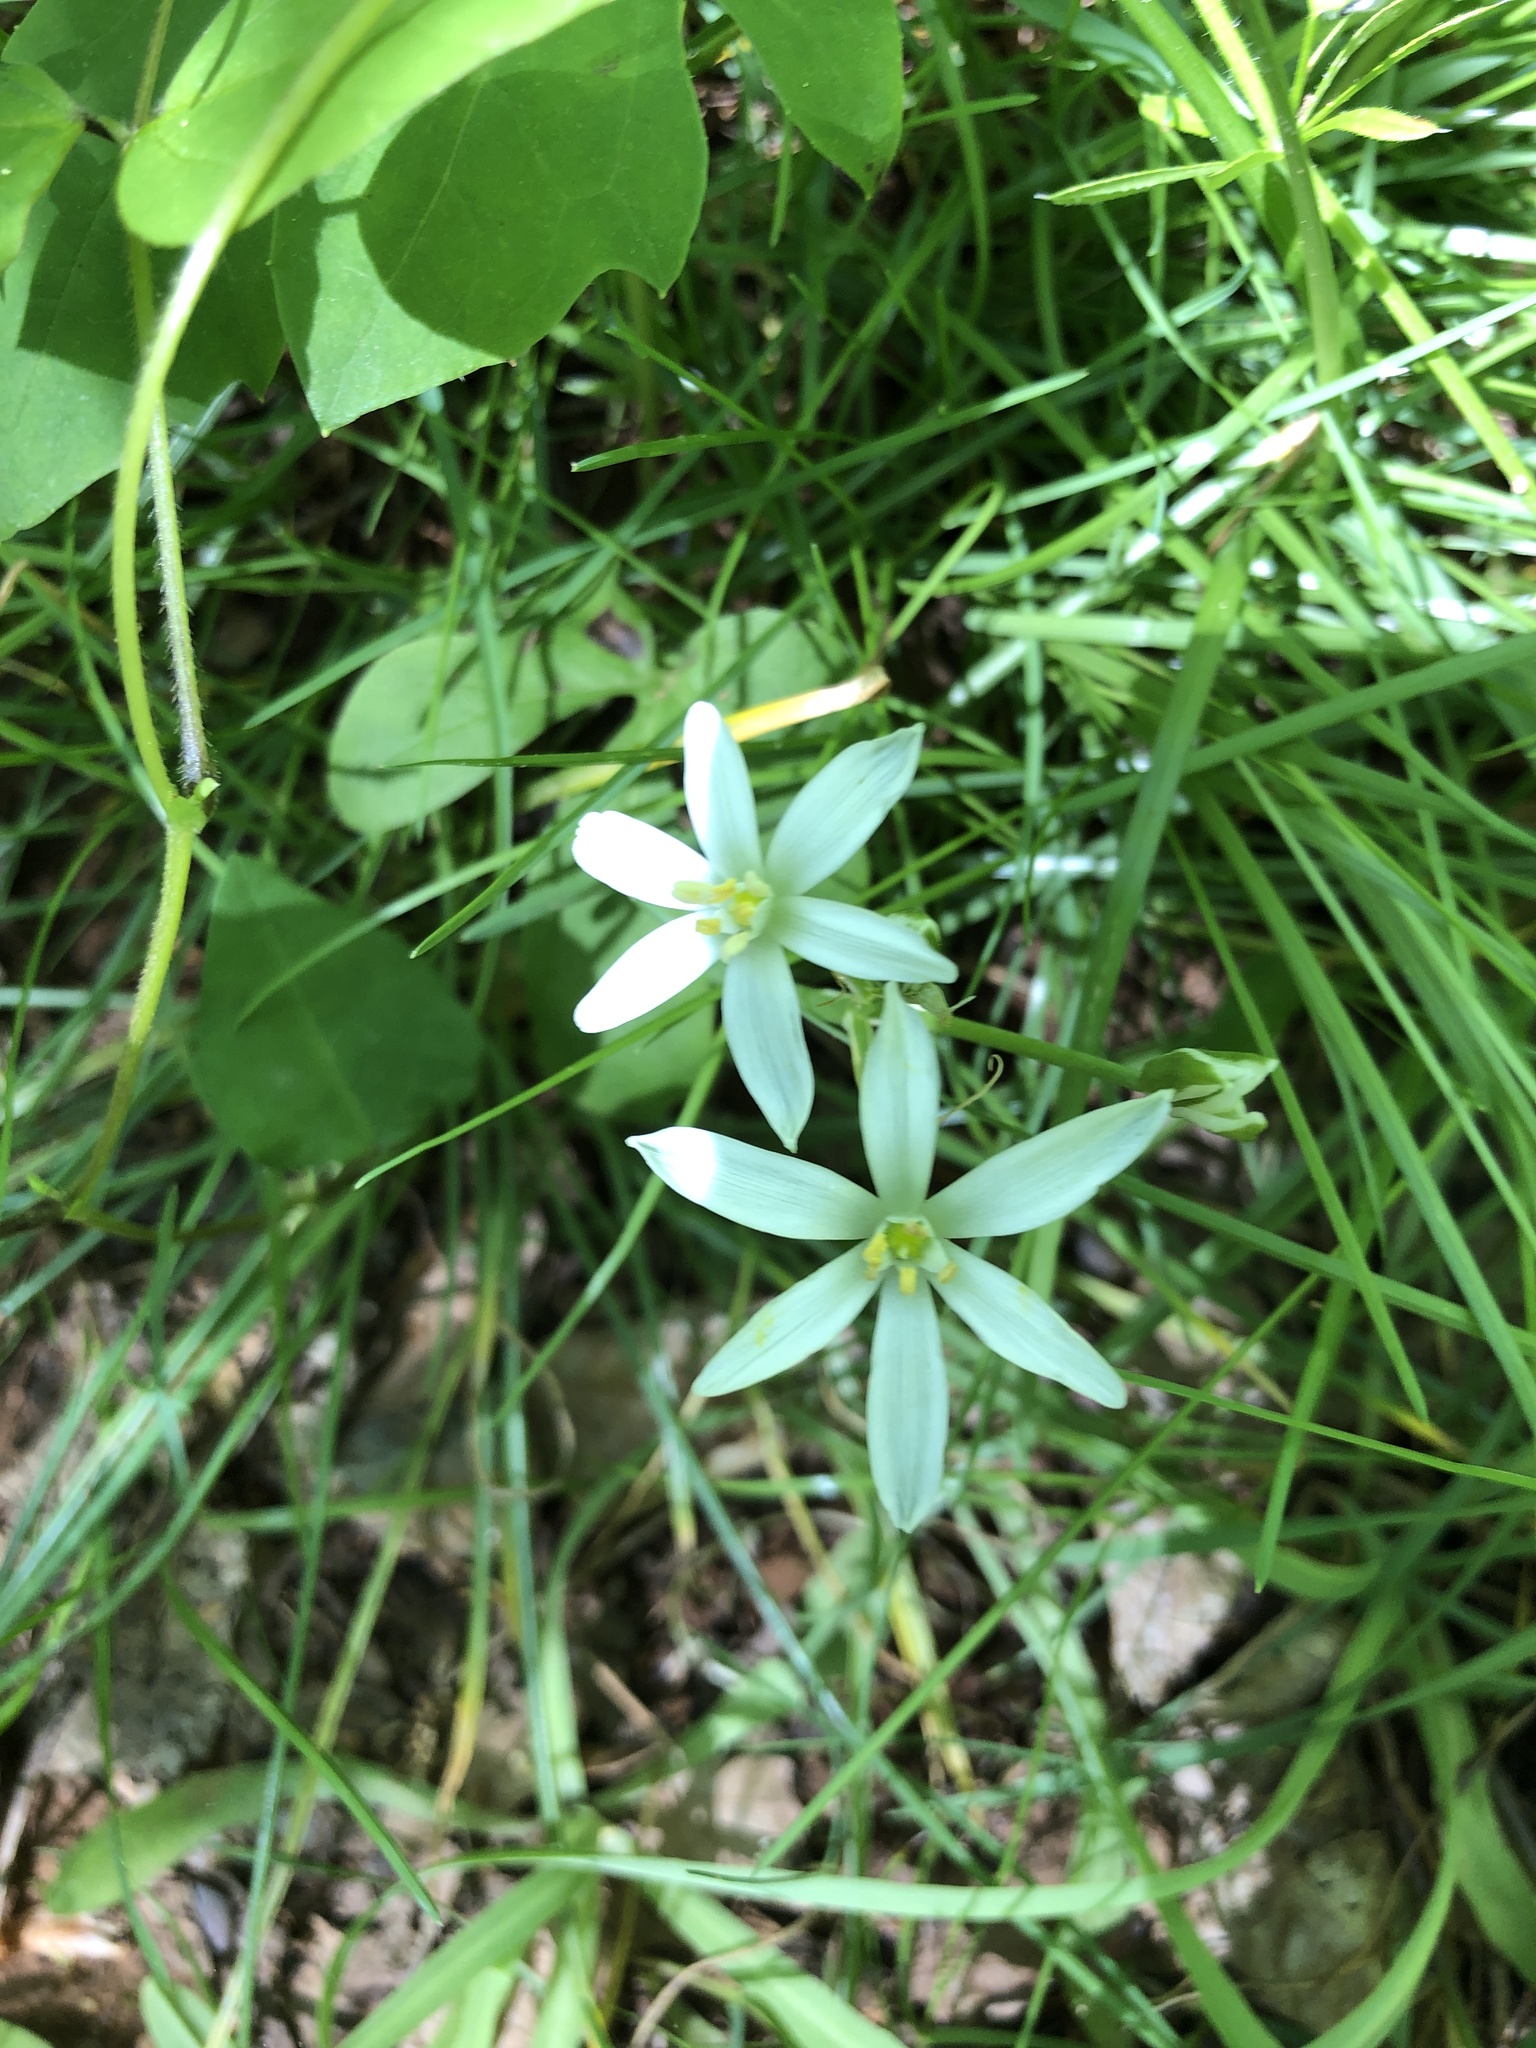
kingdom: Plantae
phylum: Tracheophyta
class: Liliopsida
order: Asparagales
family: Asparagaceae
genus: Ornithogalum
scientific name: Ornithogalum umbellatum
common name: Garden star-of-bethlehem
